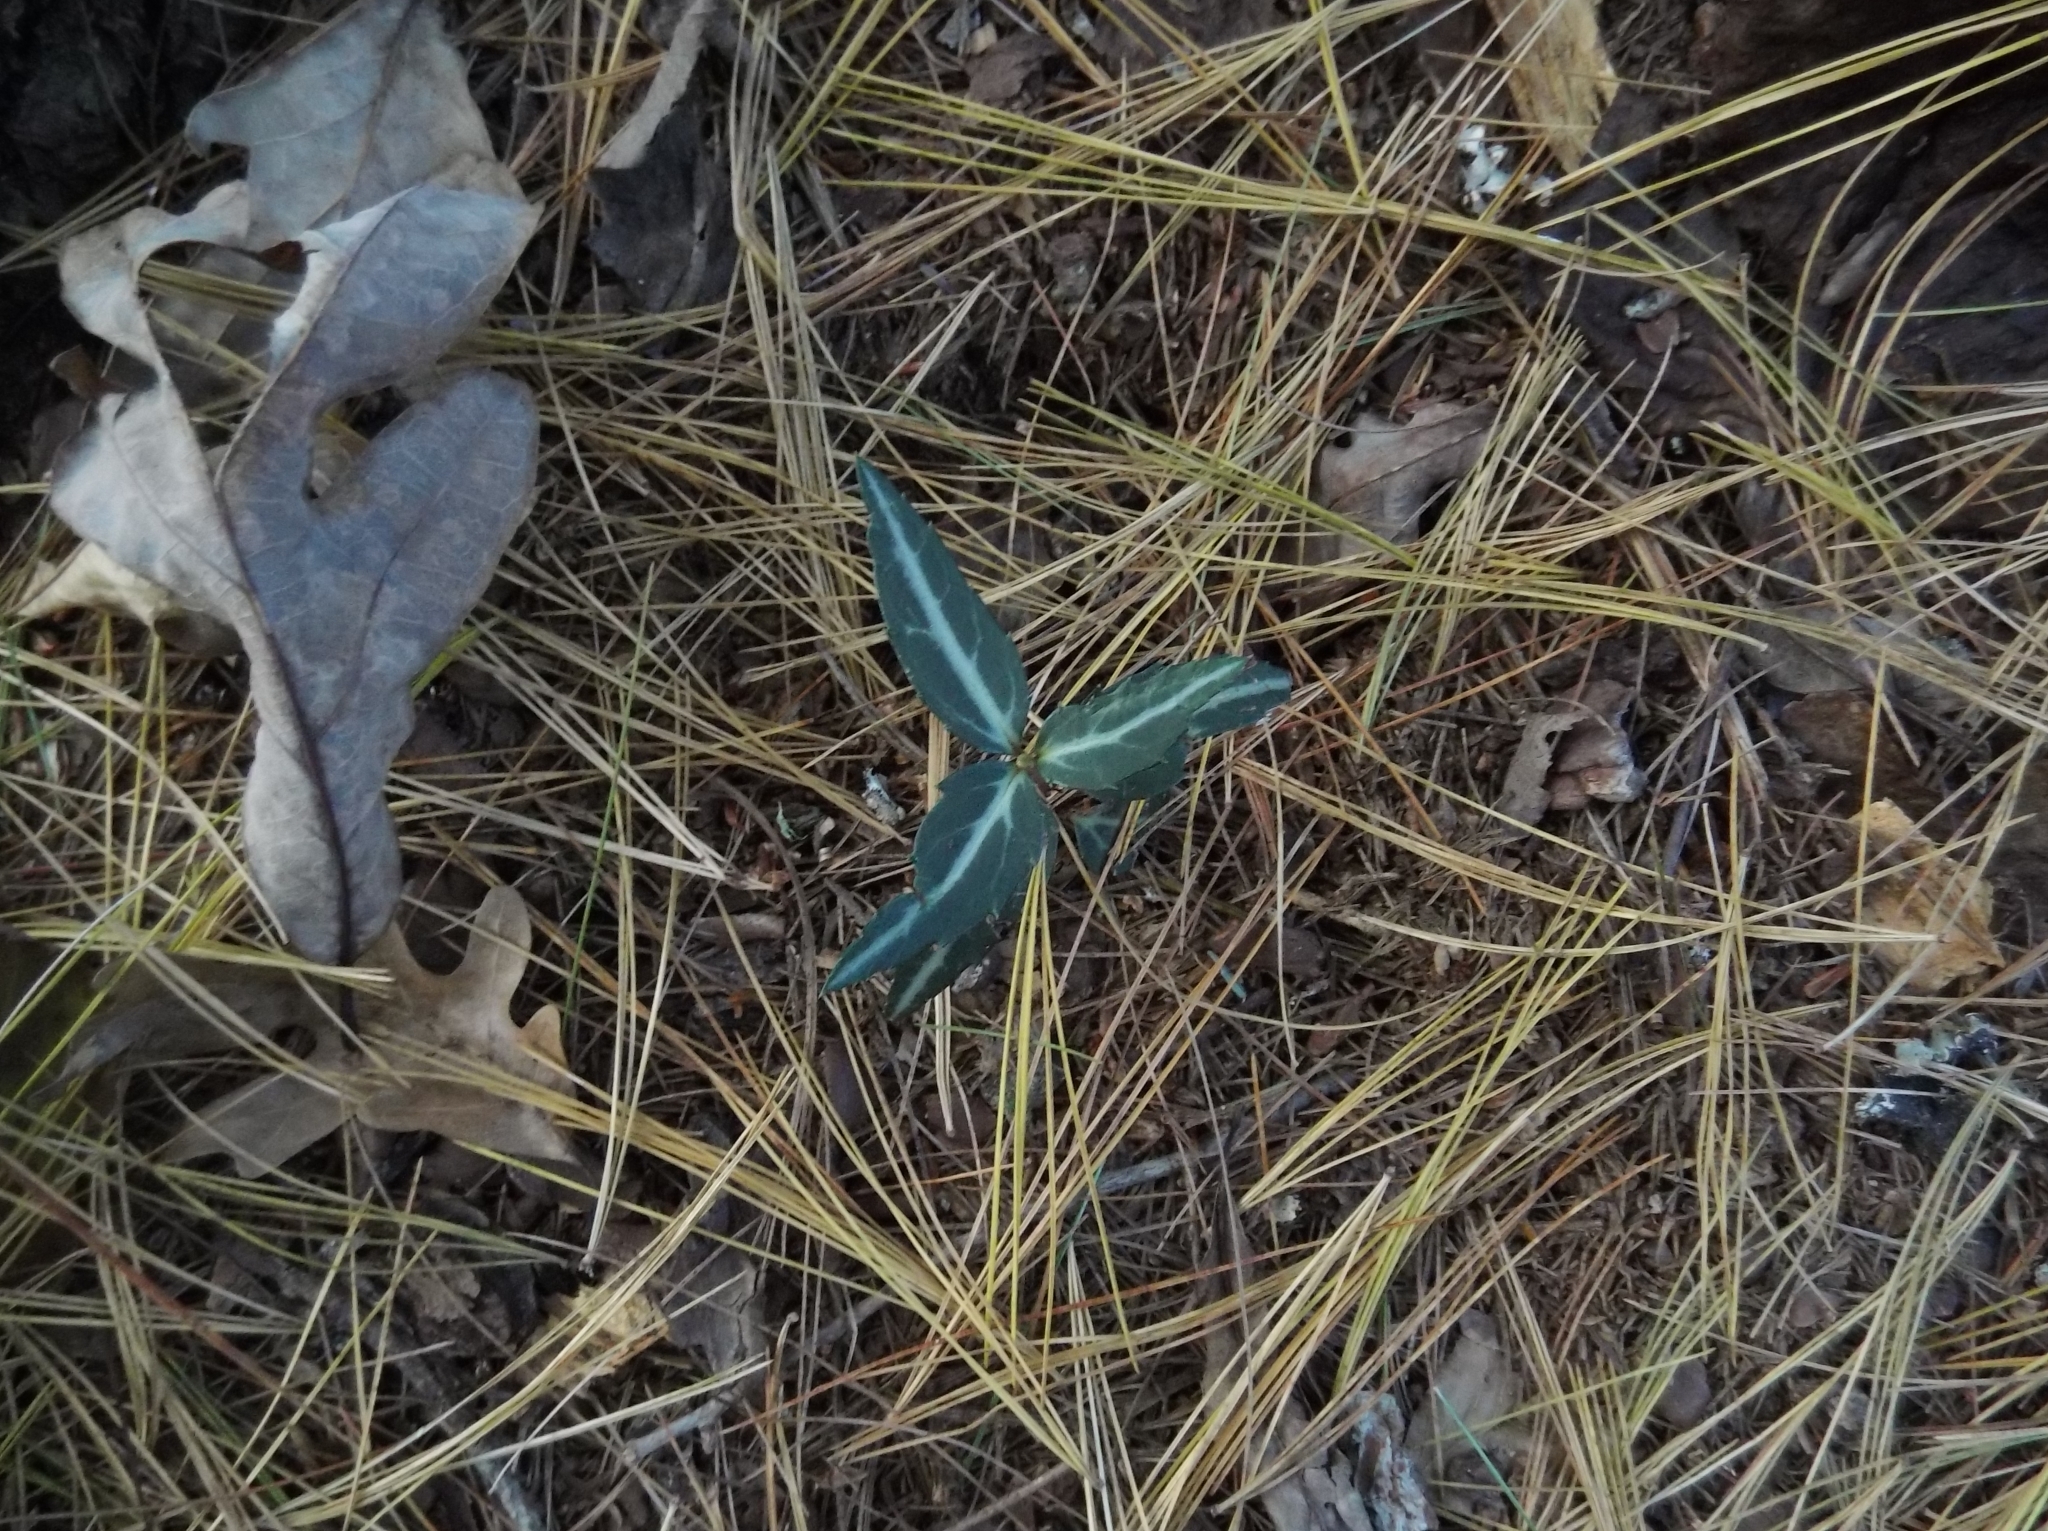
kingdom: Plantae
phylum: Tracheophyta
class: Magnoliopsida
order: Ericales
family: Ericaceae
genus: Chimaphila
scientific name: Chimaphila maculata
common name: Spotted pipsissewa
